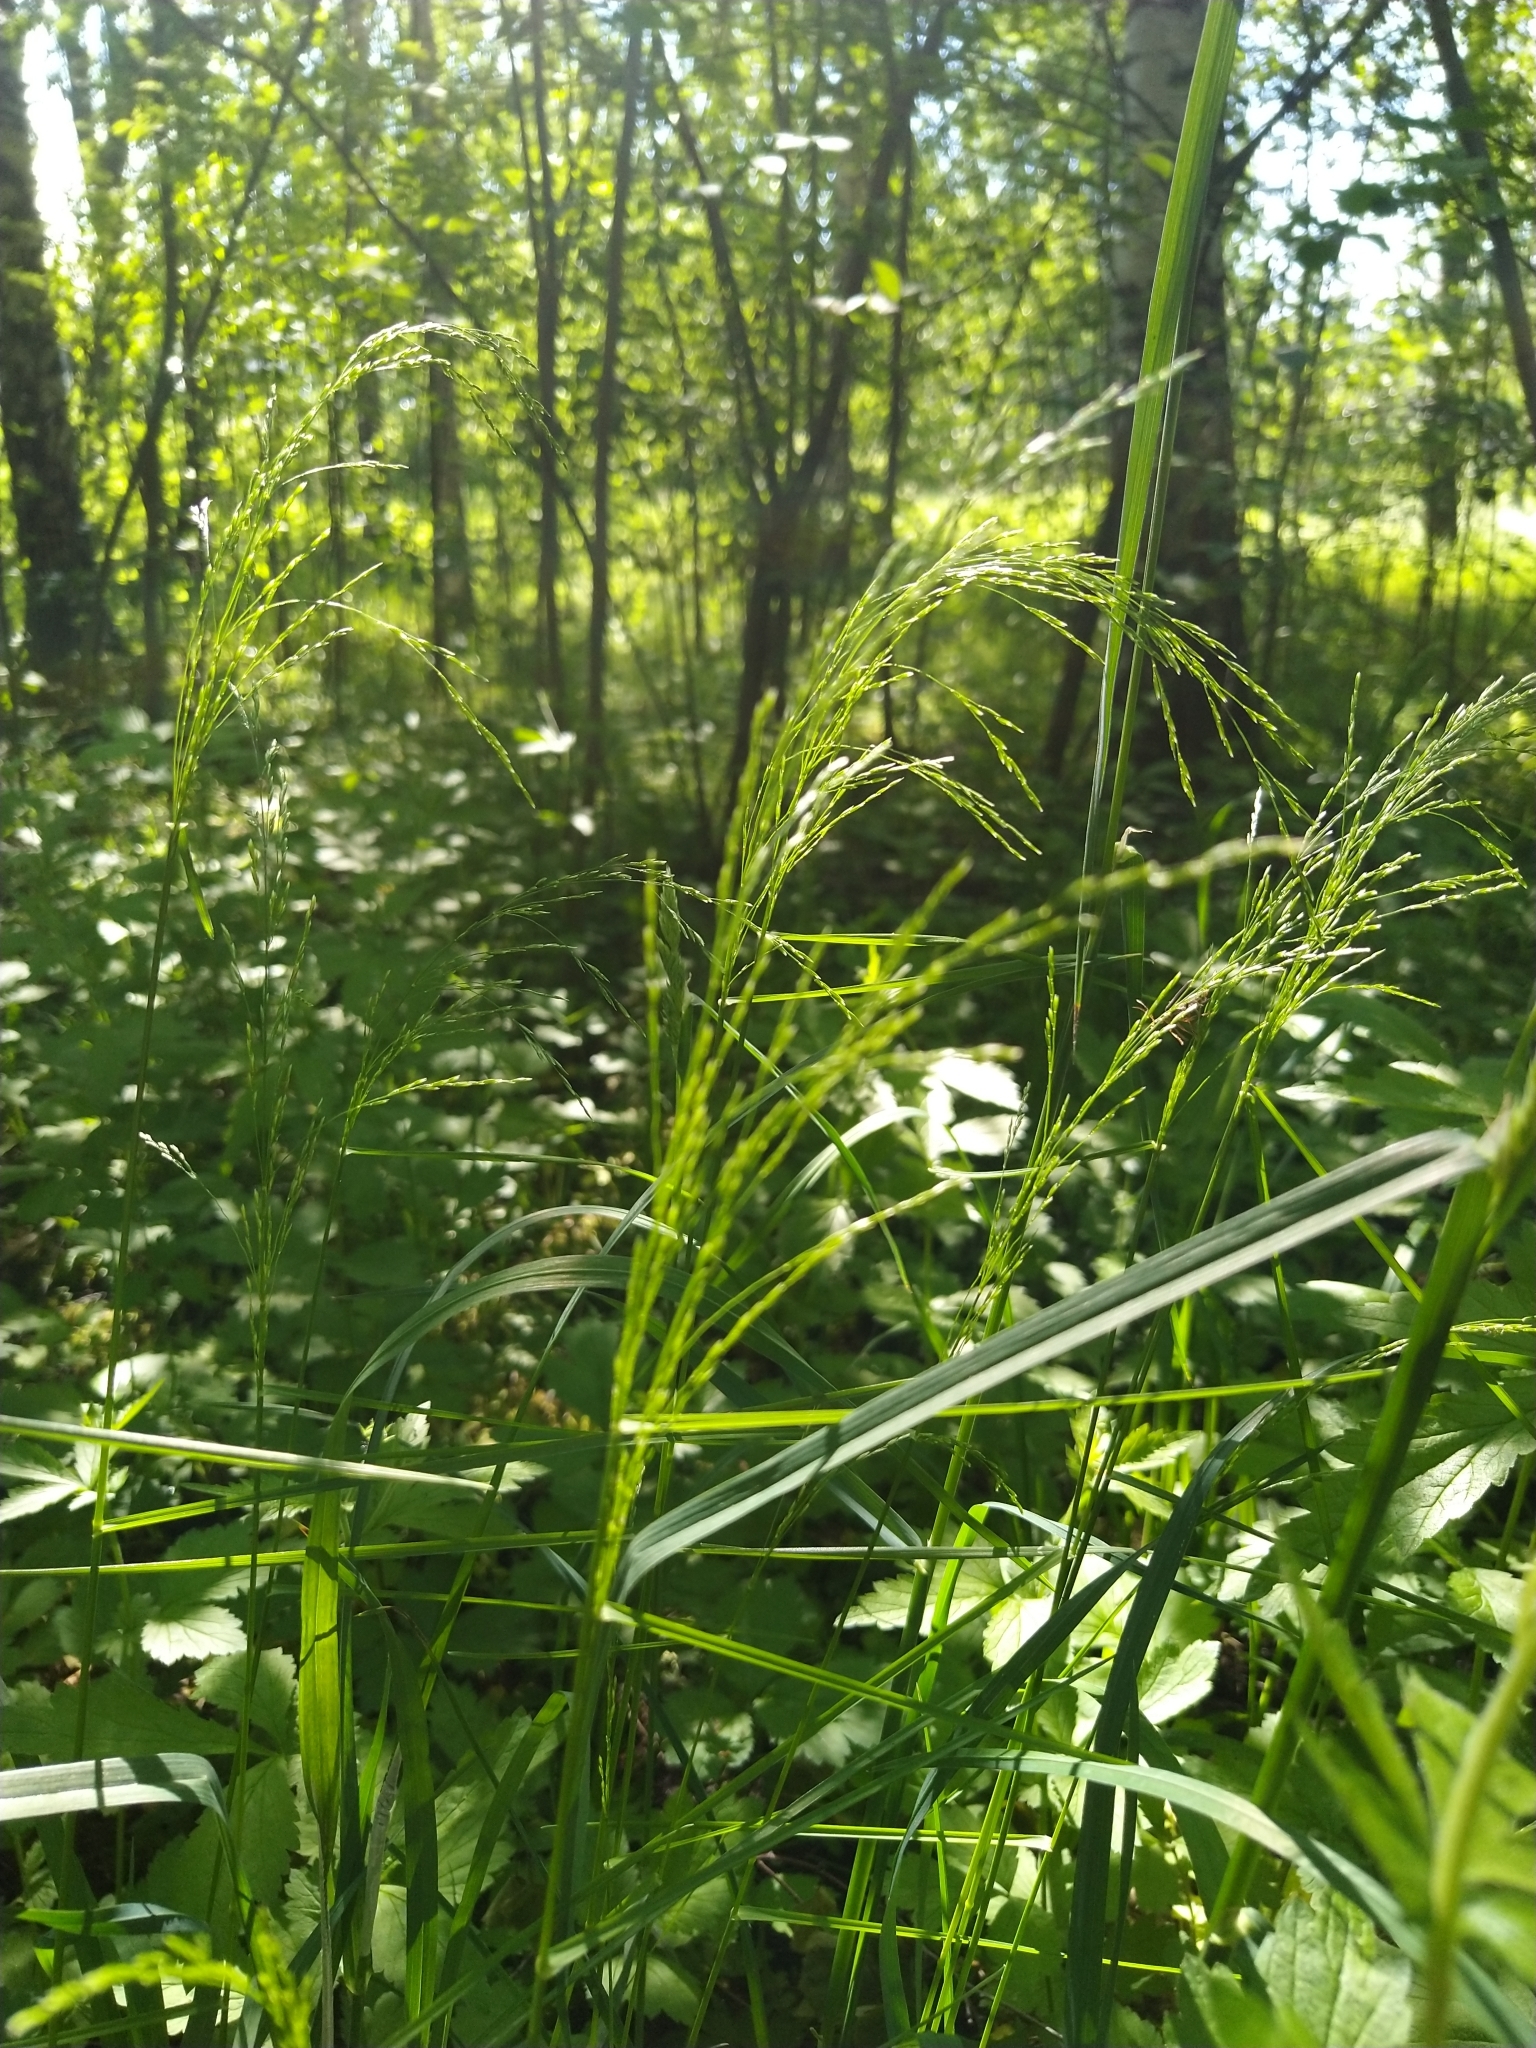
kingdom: Plantae
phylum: Tracheophyta
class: Liliopsida
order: Poales
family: Poaceae
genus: Milium
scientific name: Milium effusum
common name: Wood millet
